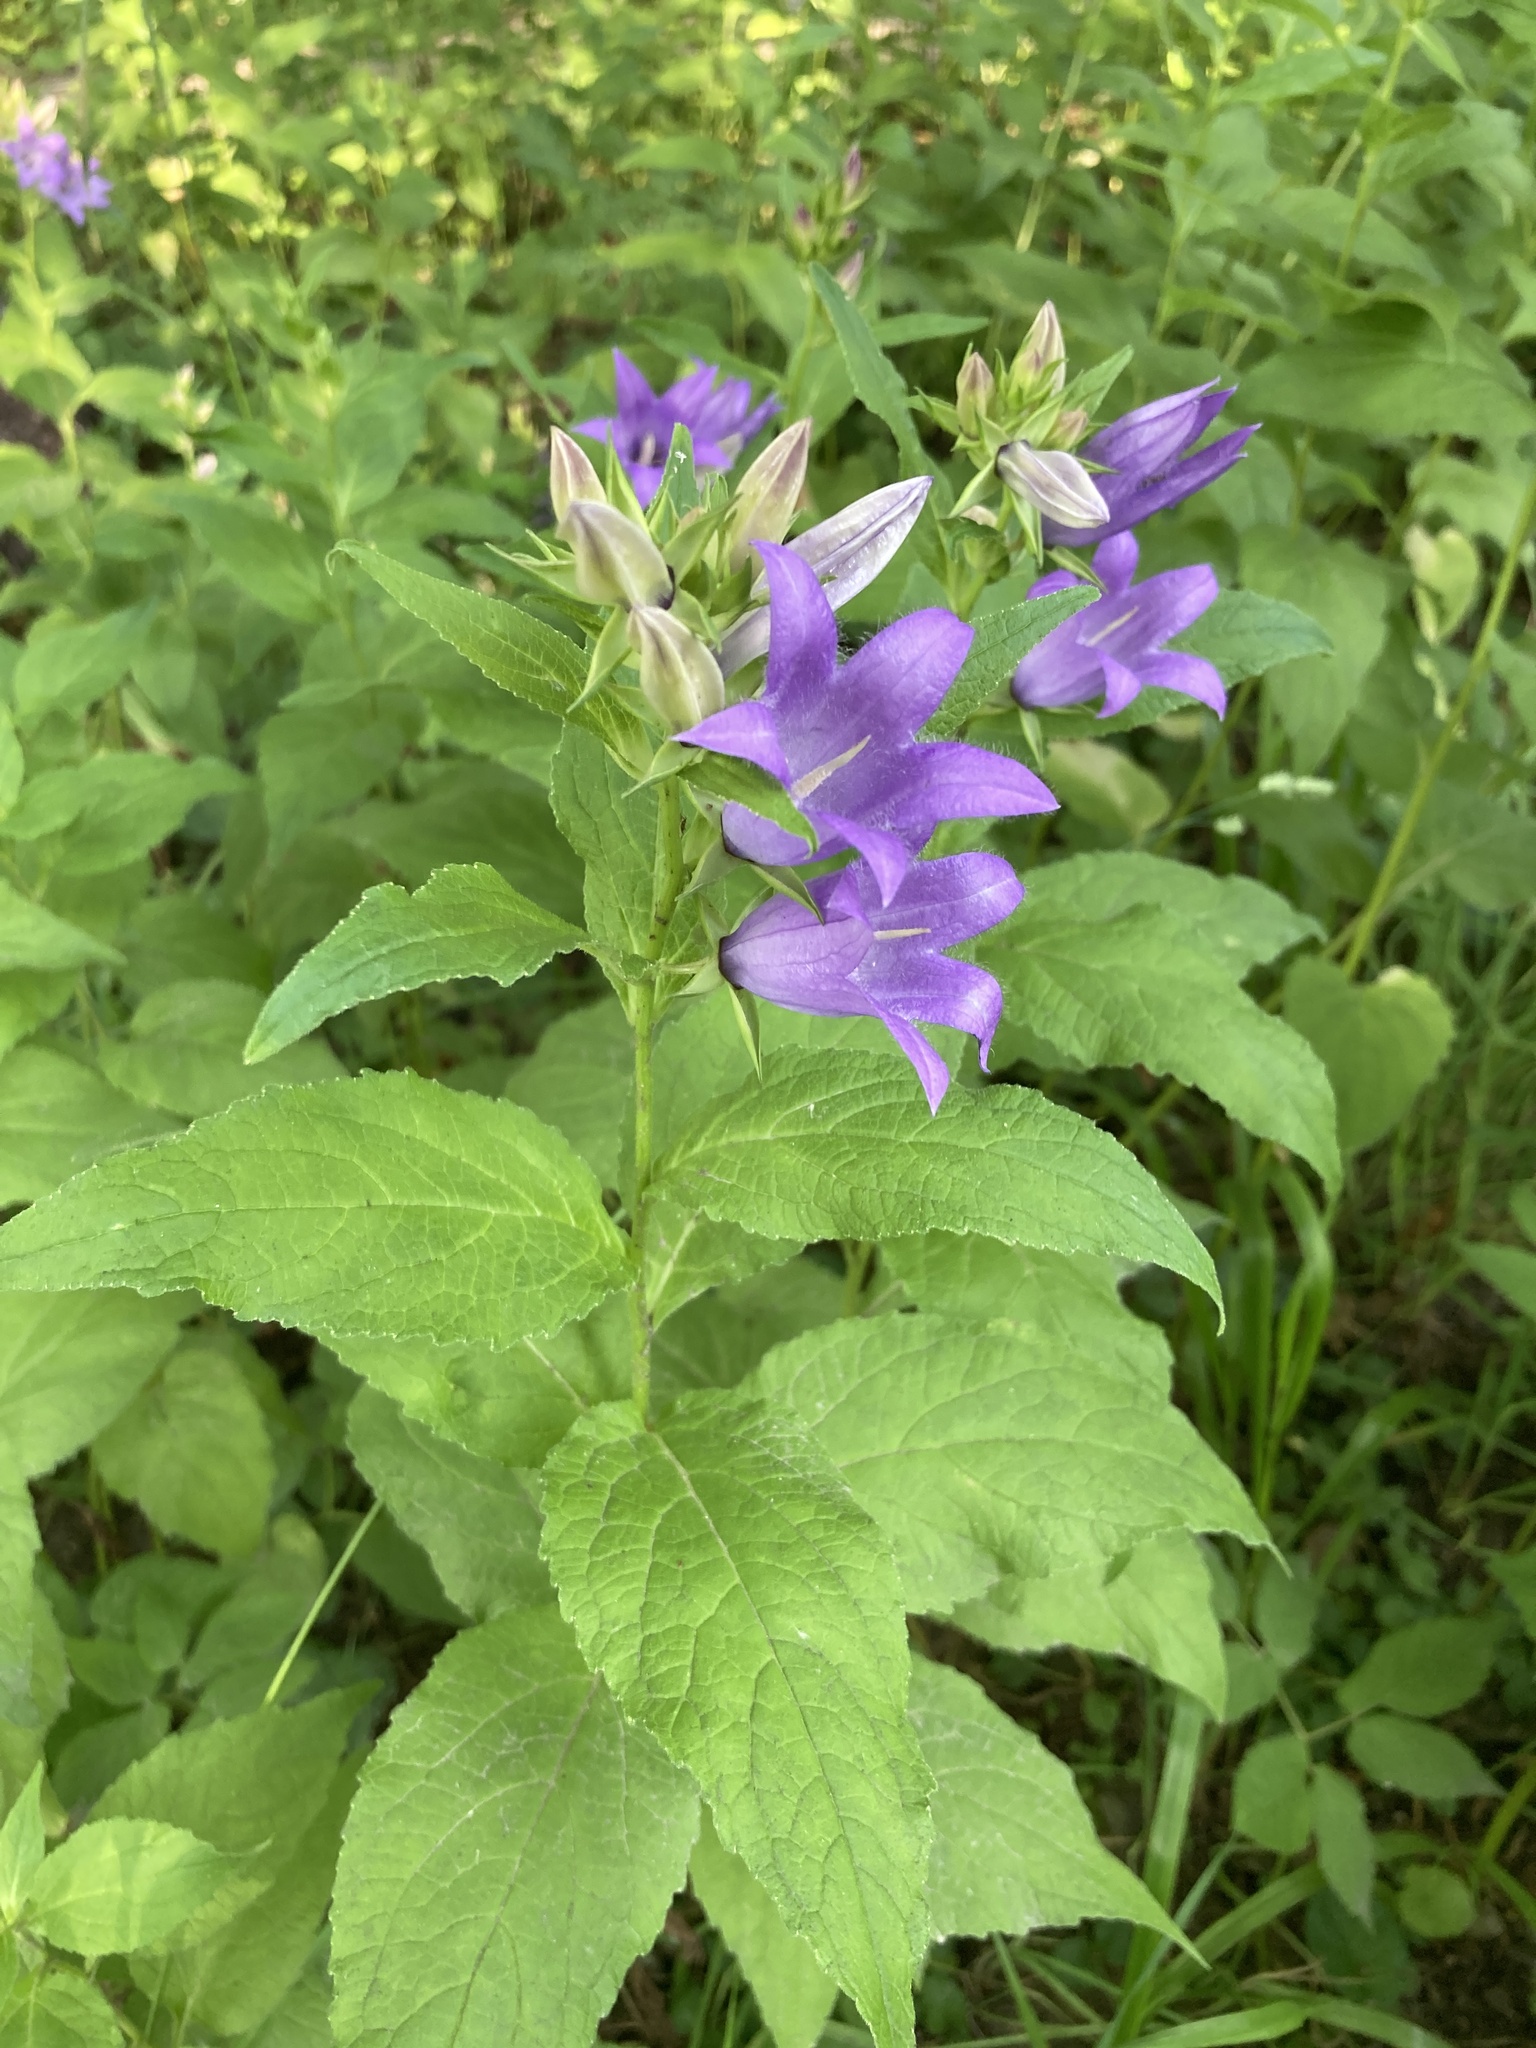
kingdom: Plantae
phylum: Tracheophyta
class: Magnoliopsida
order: Asterales
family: Campanulaceae
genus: Campanula
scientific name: Campanula latifolia
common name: Giant bellflower
